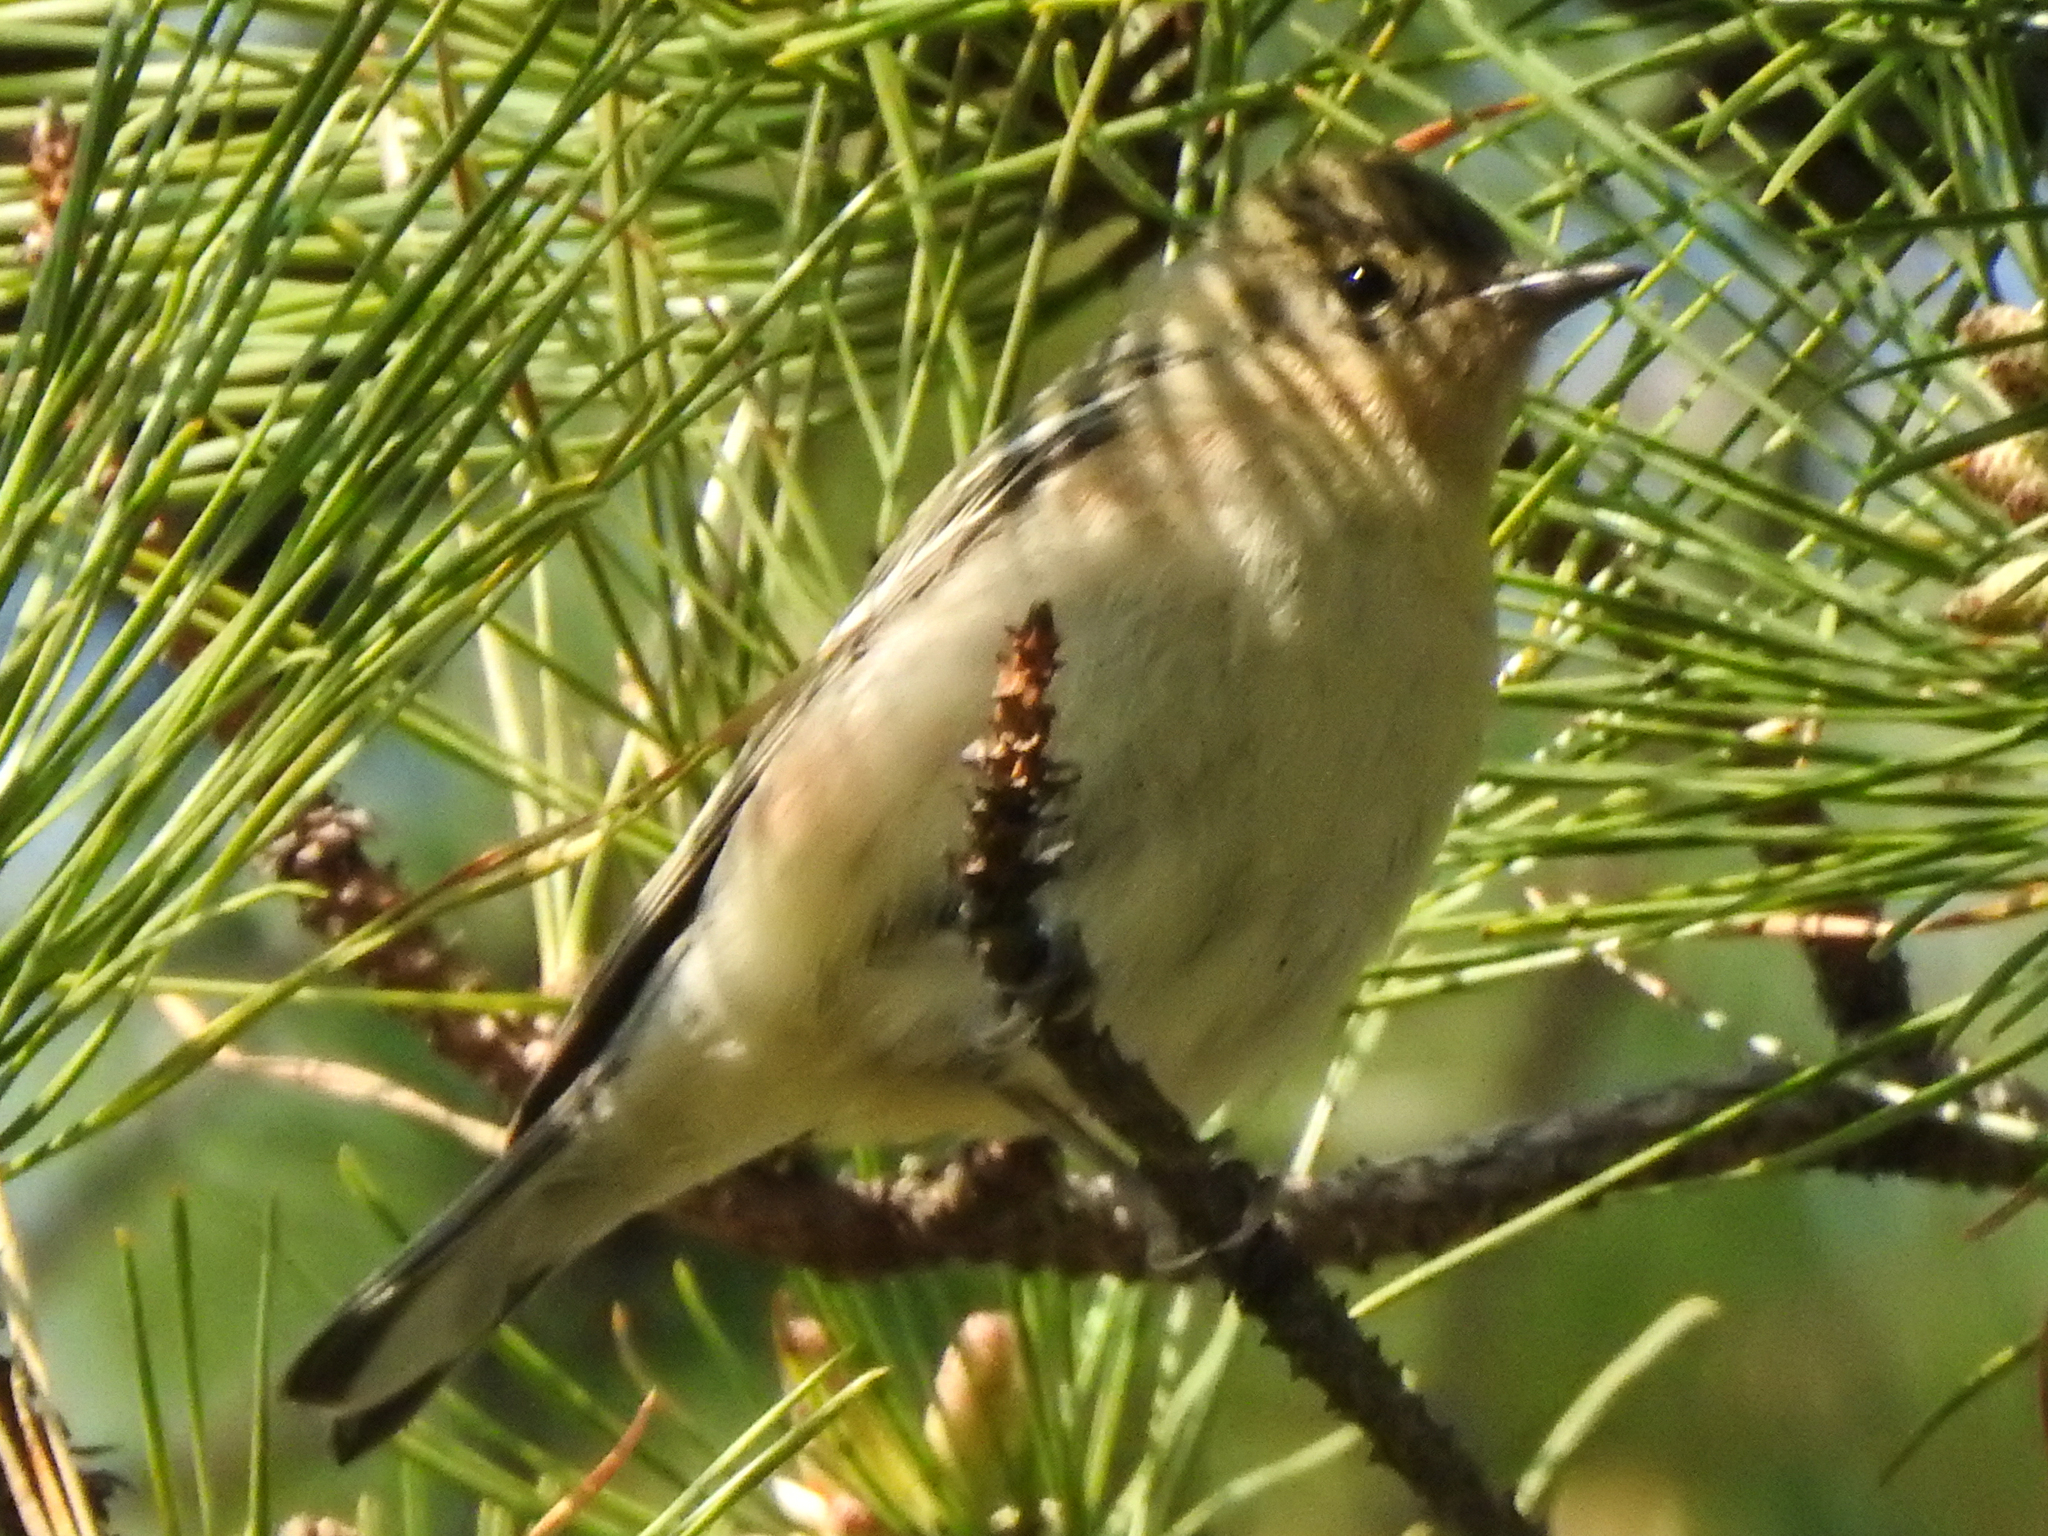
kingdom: Animalia
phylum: Chordata
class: Aves
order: Passeriformes
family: Parulidae
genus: Setophaga
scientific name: Setophaga castanea
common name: Bay-breasted warbler
